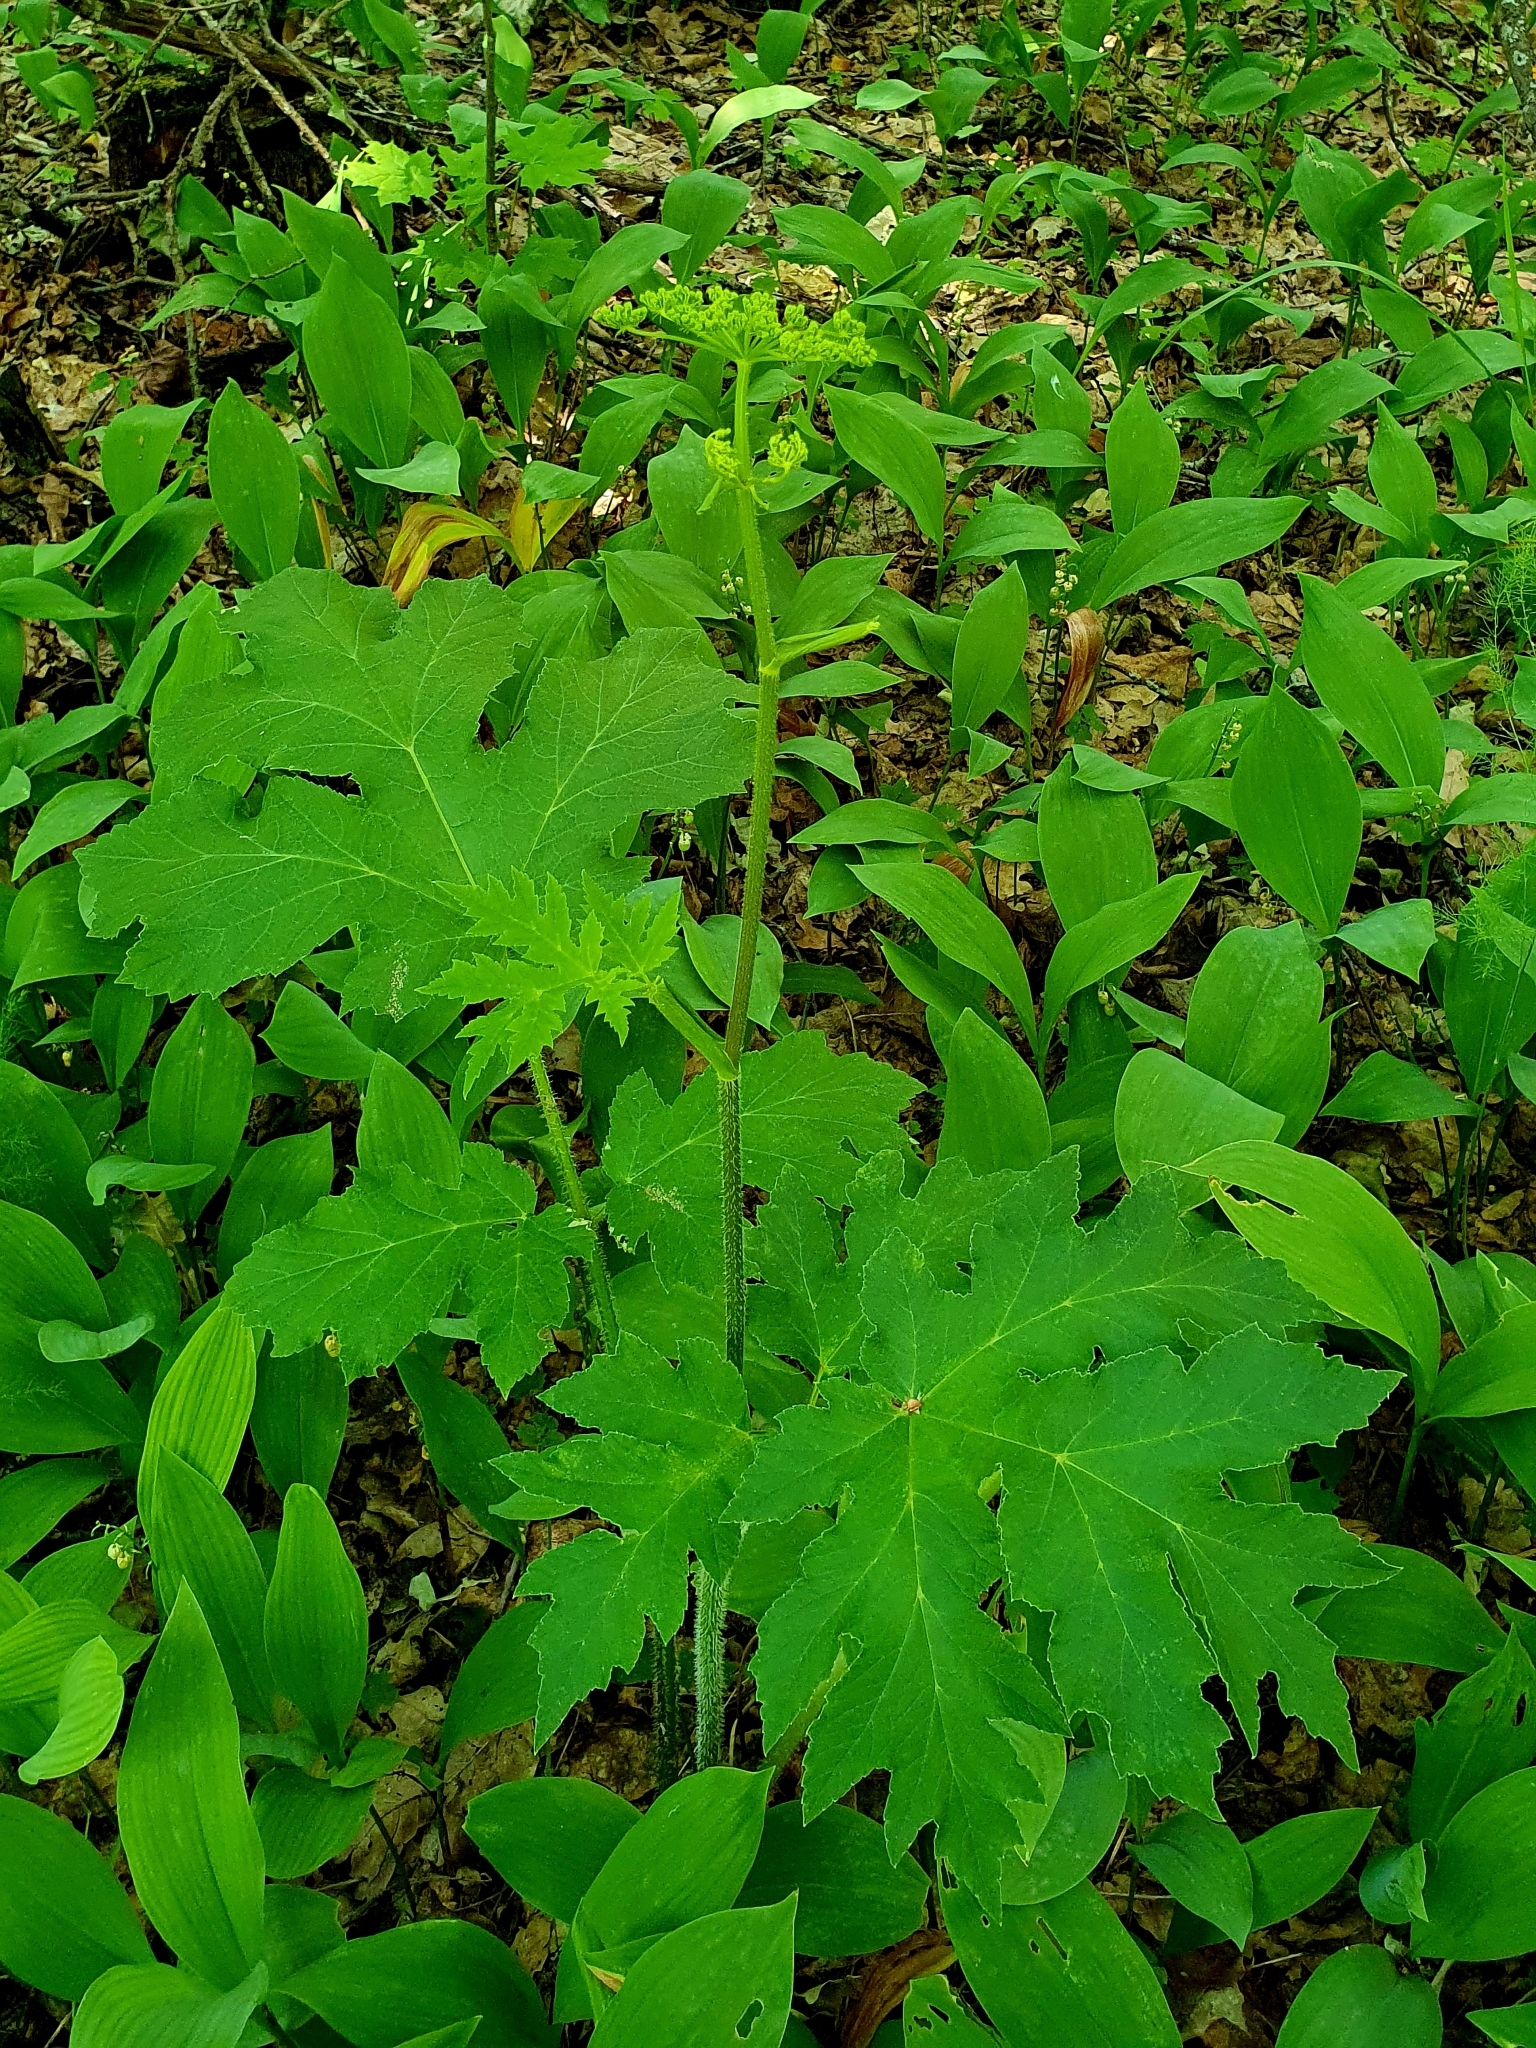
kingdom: Plantae
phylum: Tracheophyta
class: Magnoliopsida
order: Apiales
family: Apiaceae
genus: Heracleum
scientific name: Heracleum sphondylium
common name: Hogweed
